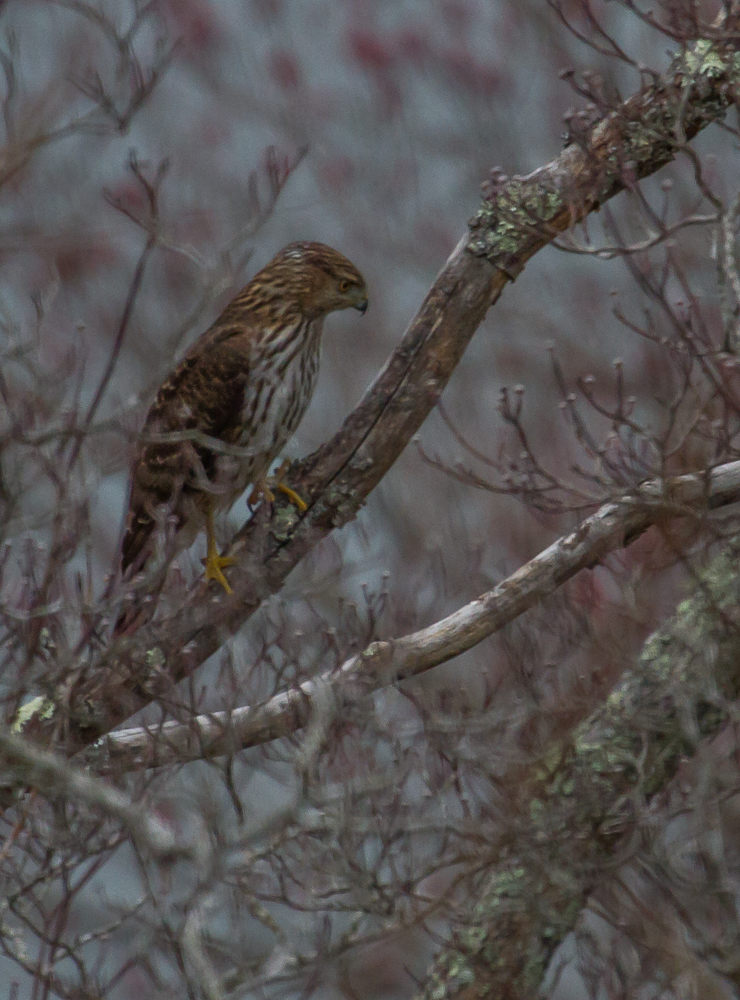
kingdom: Animalia
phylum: Chordata
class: Aves
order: Accipitriformes
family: Accipitridae
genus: Accipiter
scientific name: Accipiter cooperii
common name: Cooper's hawk
